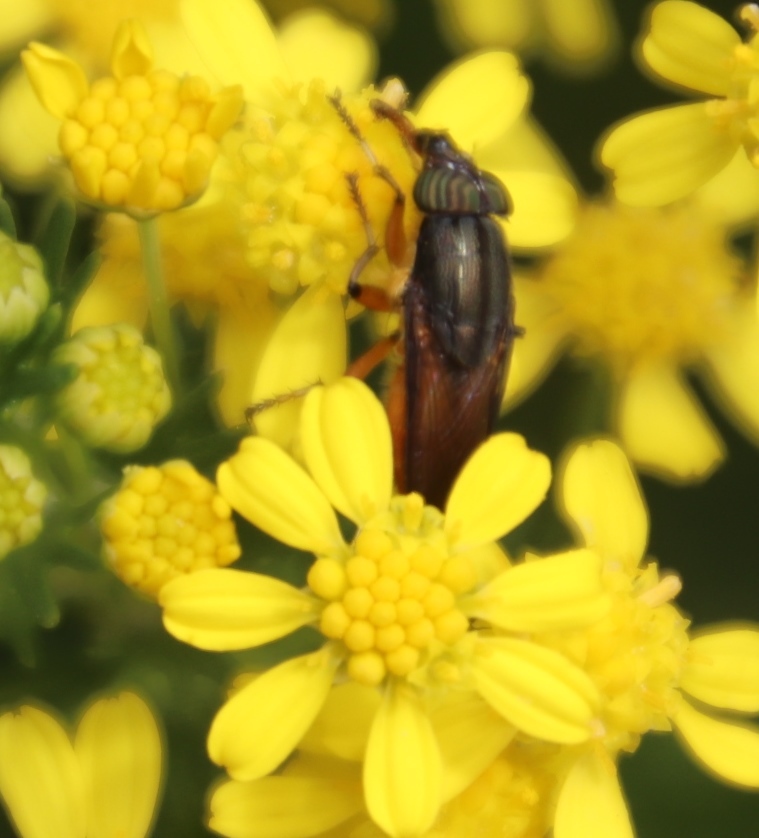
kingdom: Animalia
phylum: Arthropoda
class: Insecta
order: Diptera
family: Calliphoridae
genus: Fainia
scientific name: Fainia albitarsis
